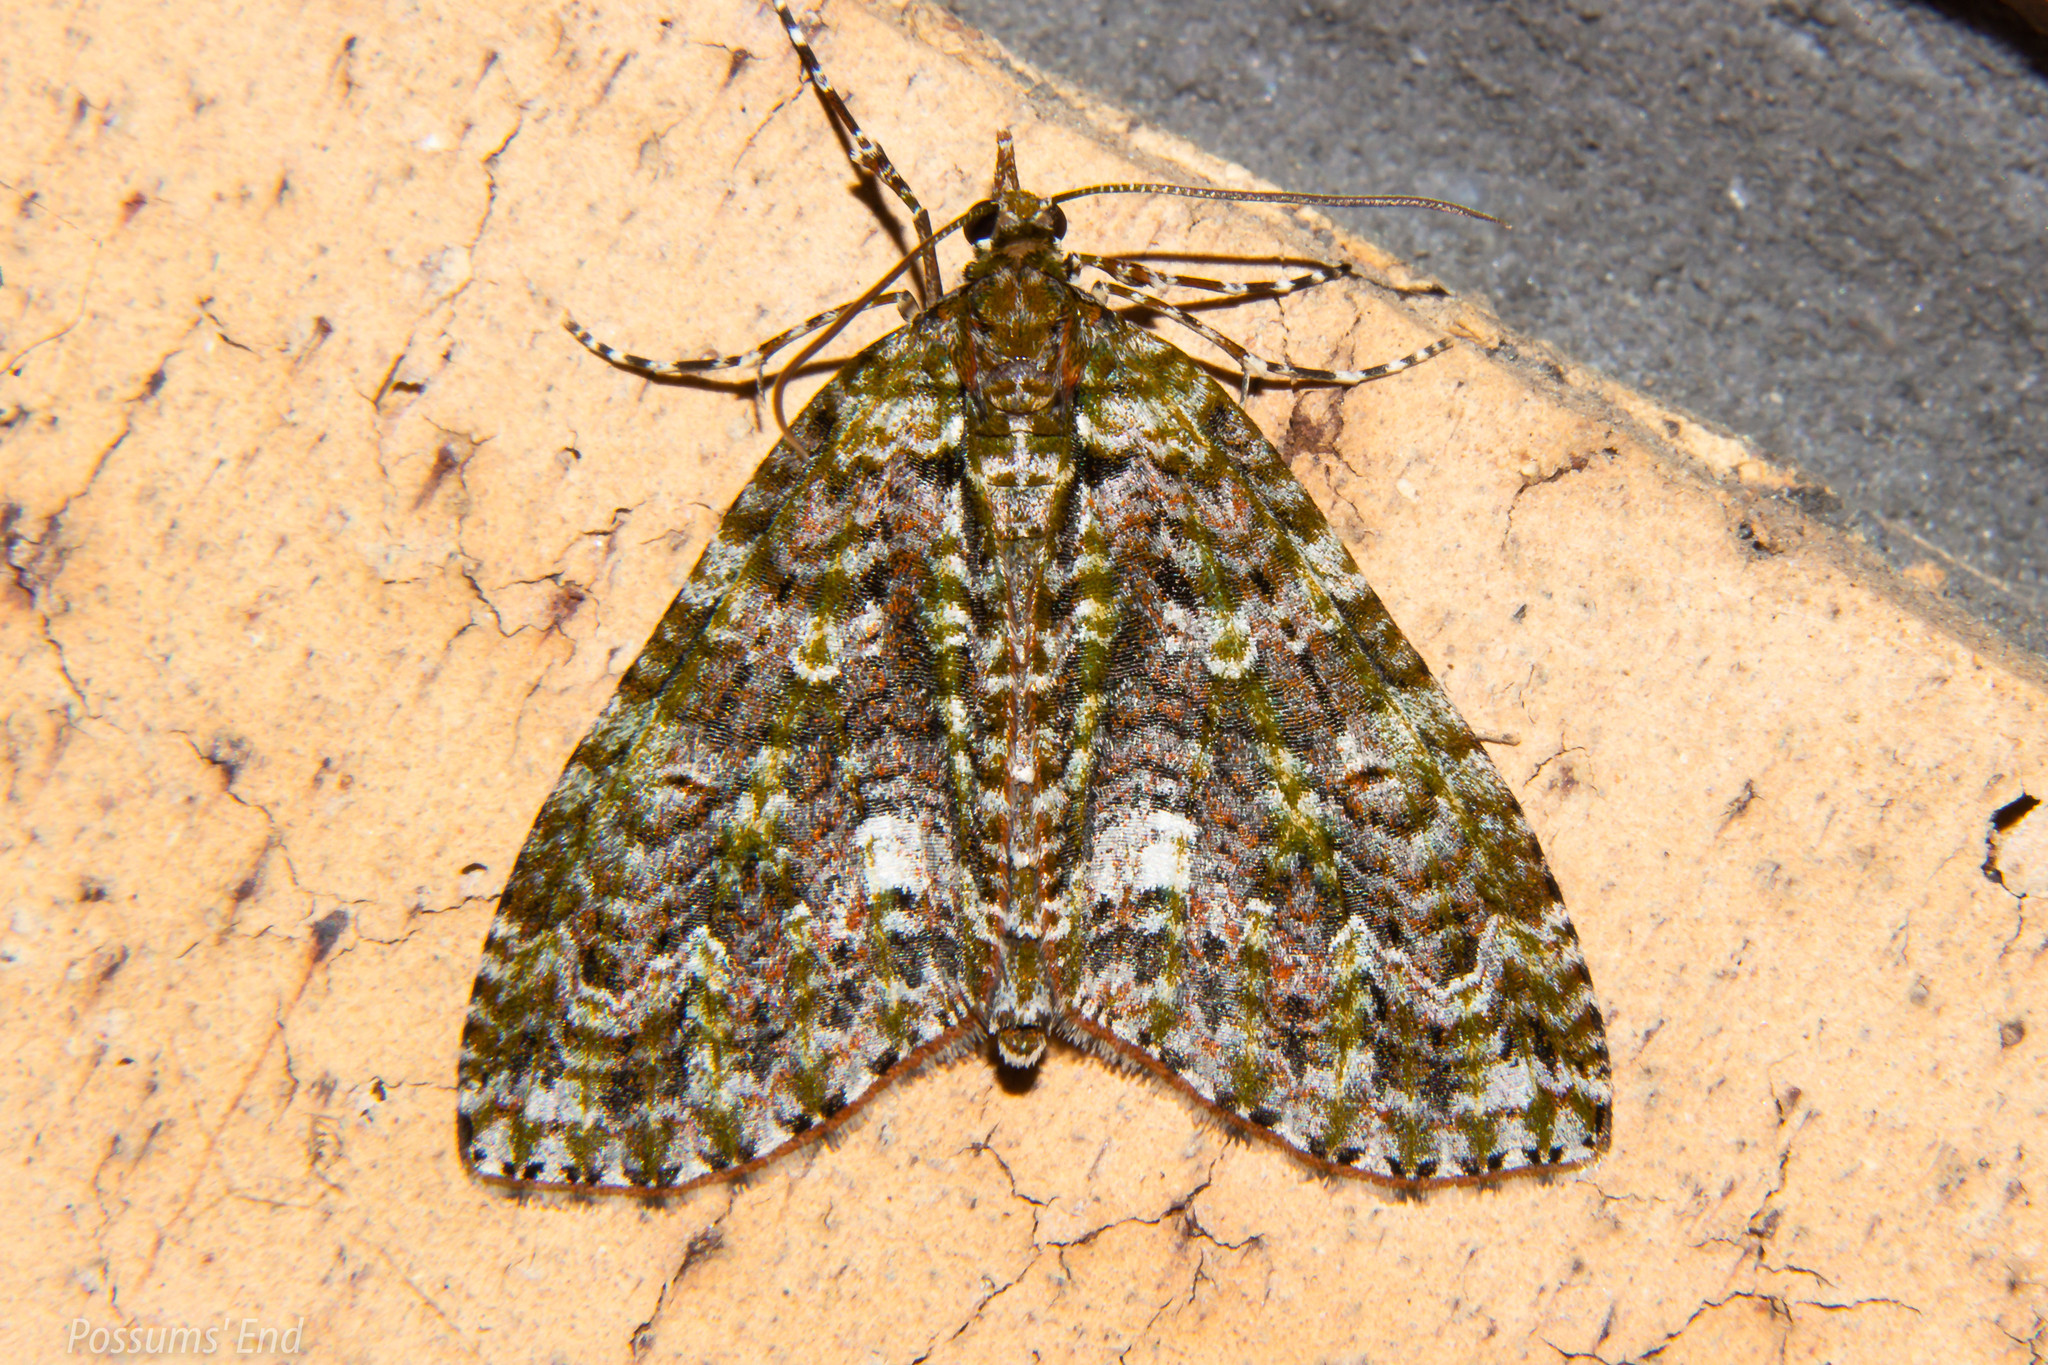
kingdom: Animalia
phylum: Arthropoda
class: Insecta
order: Lepidoptera
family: Geometridae
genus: Tatosoma
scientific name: Tatosoma agrionata
